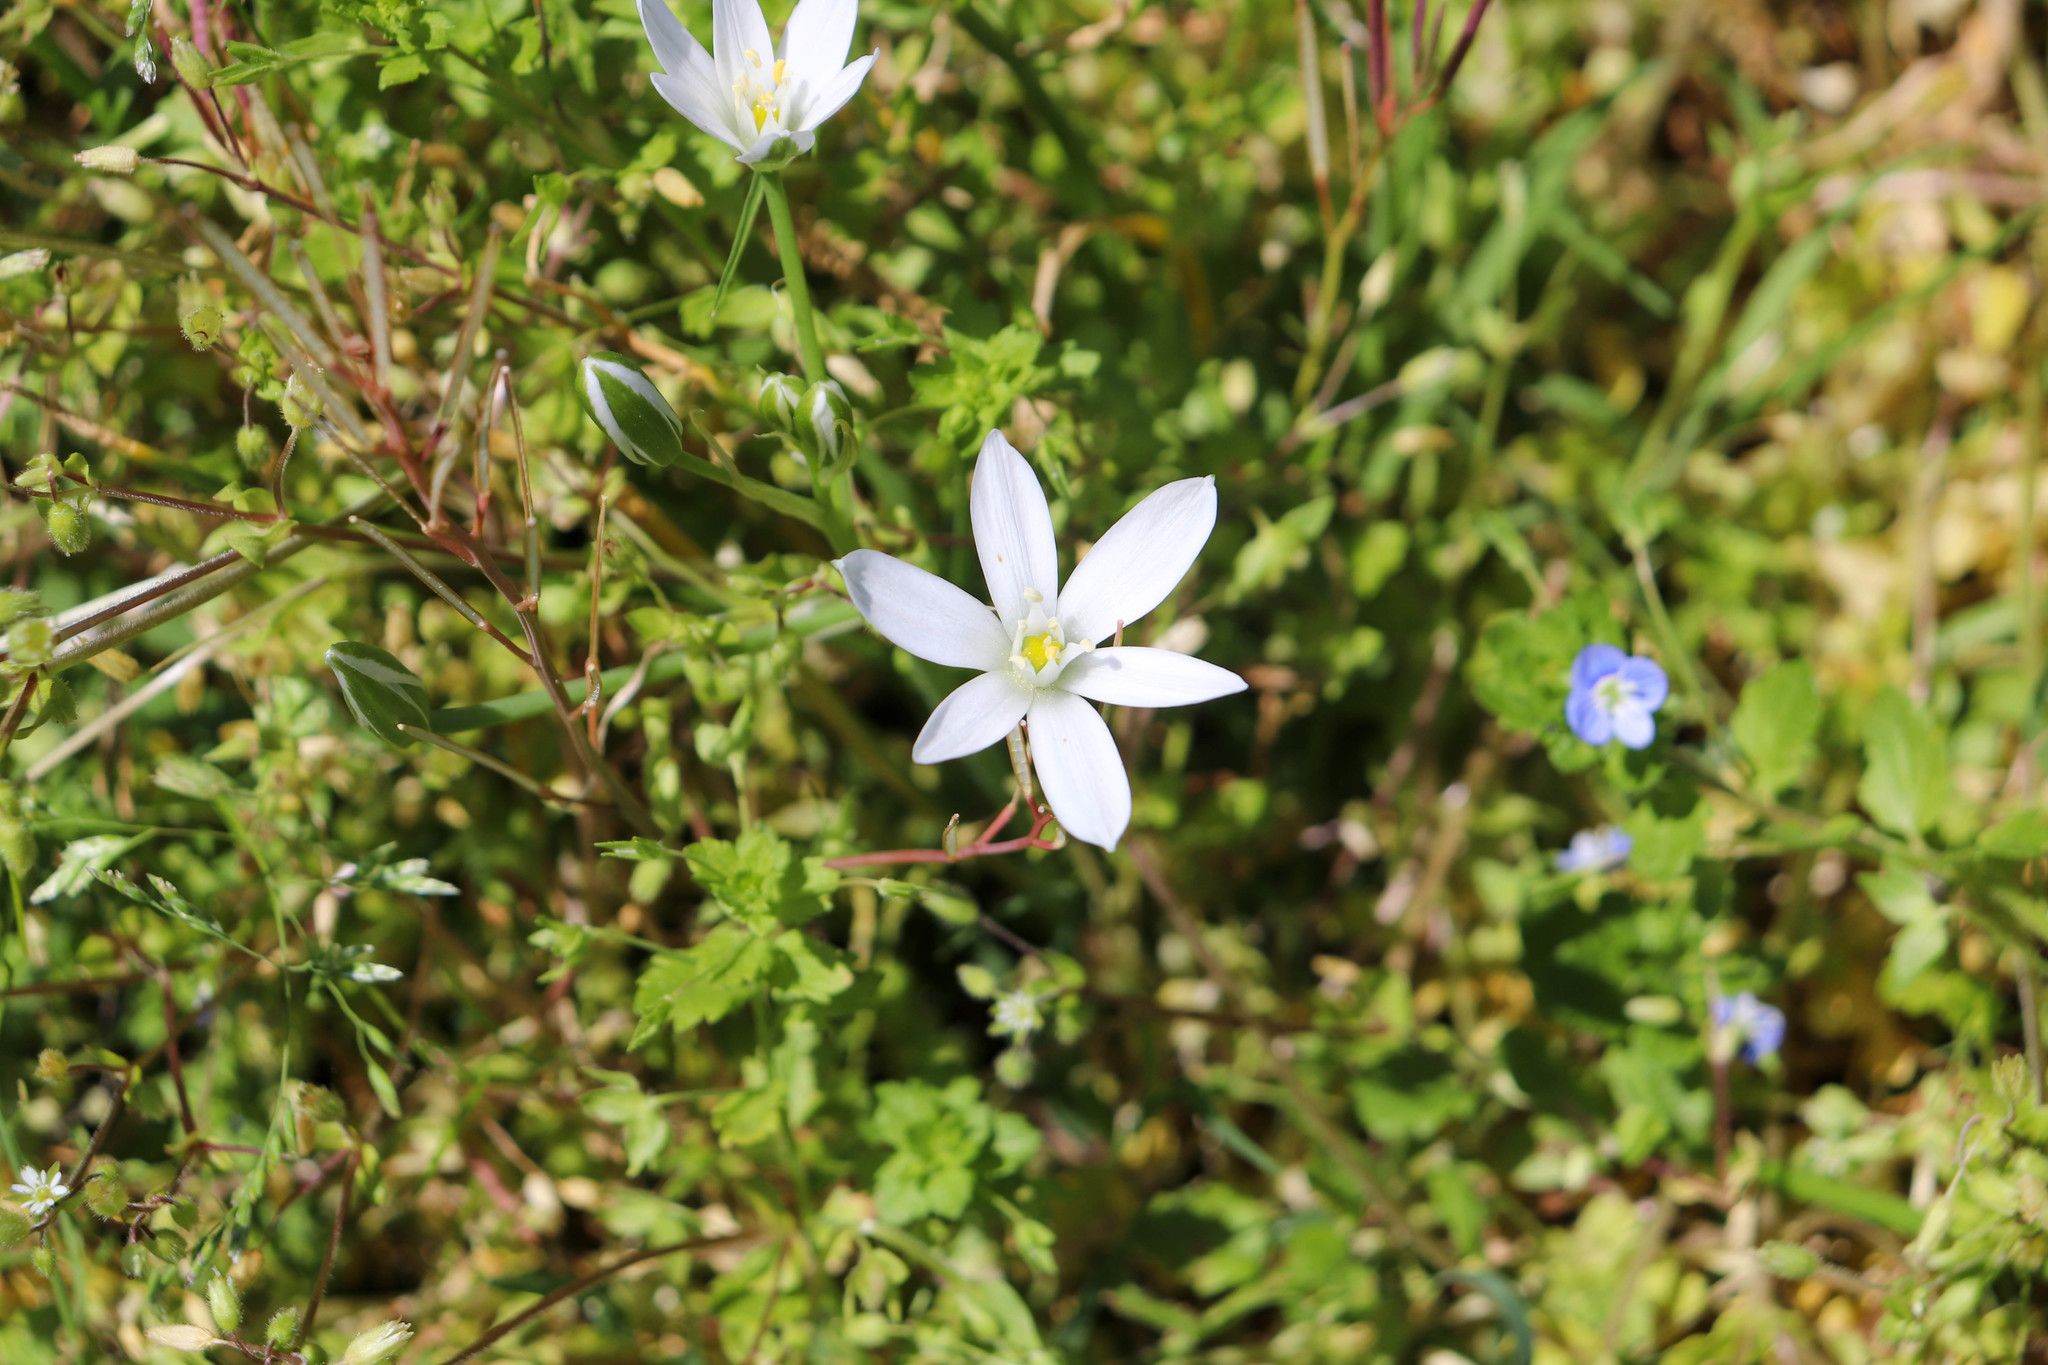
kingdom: Plantae
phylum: Tracheophyta
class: Liliopsida
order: Asparagales
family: Asparagaceae
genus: Ornithogalum
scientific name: Ornithogalum umbellatum
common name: Garden star-of-bethlehem
